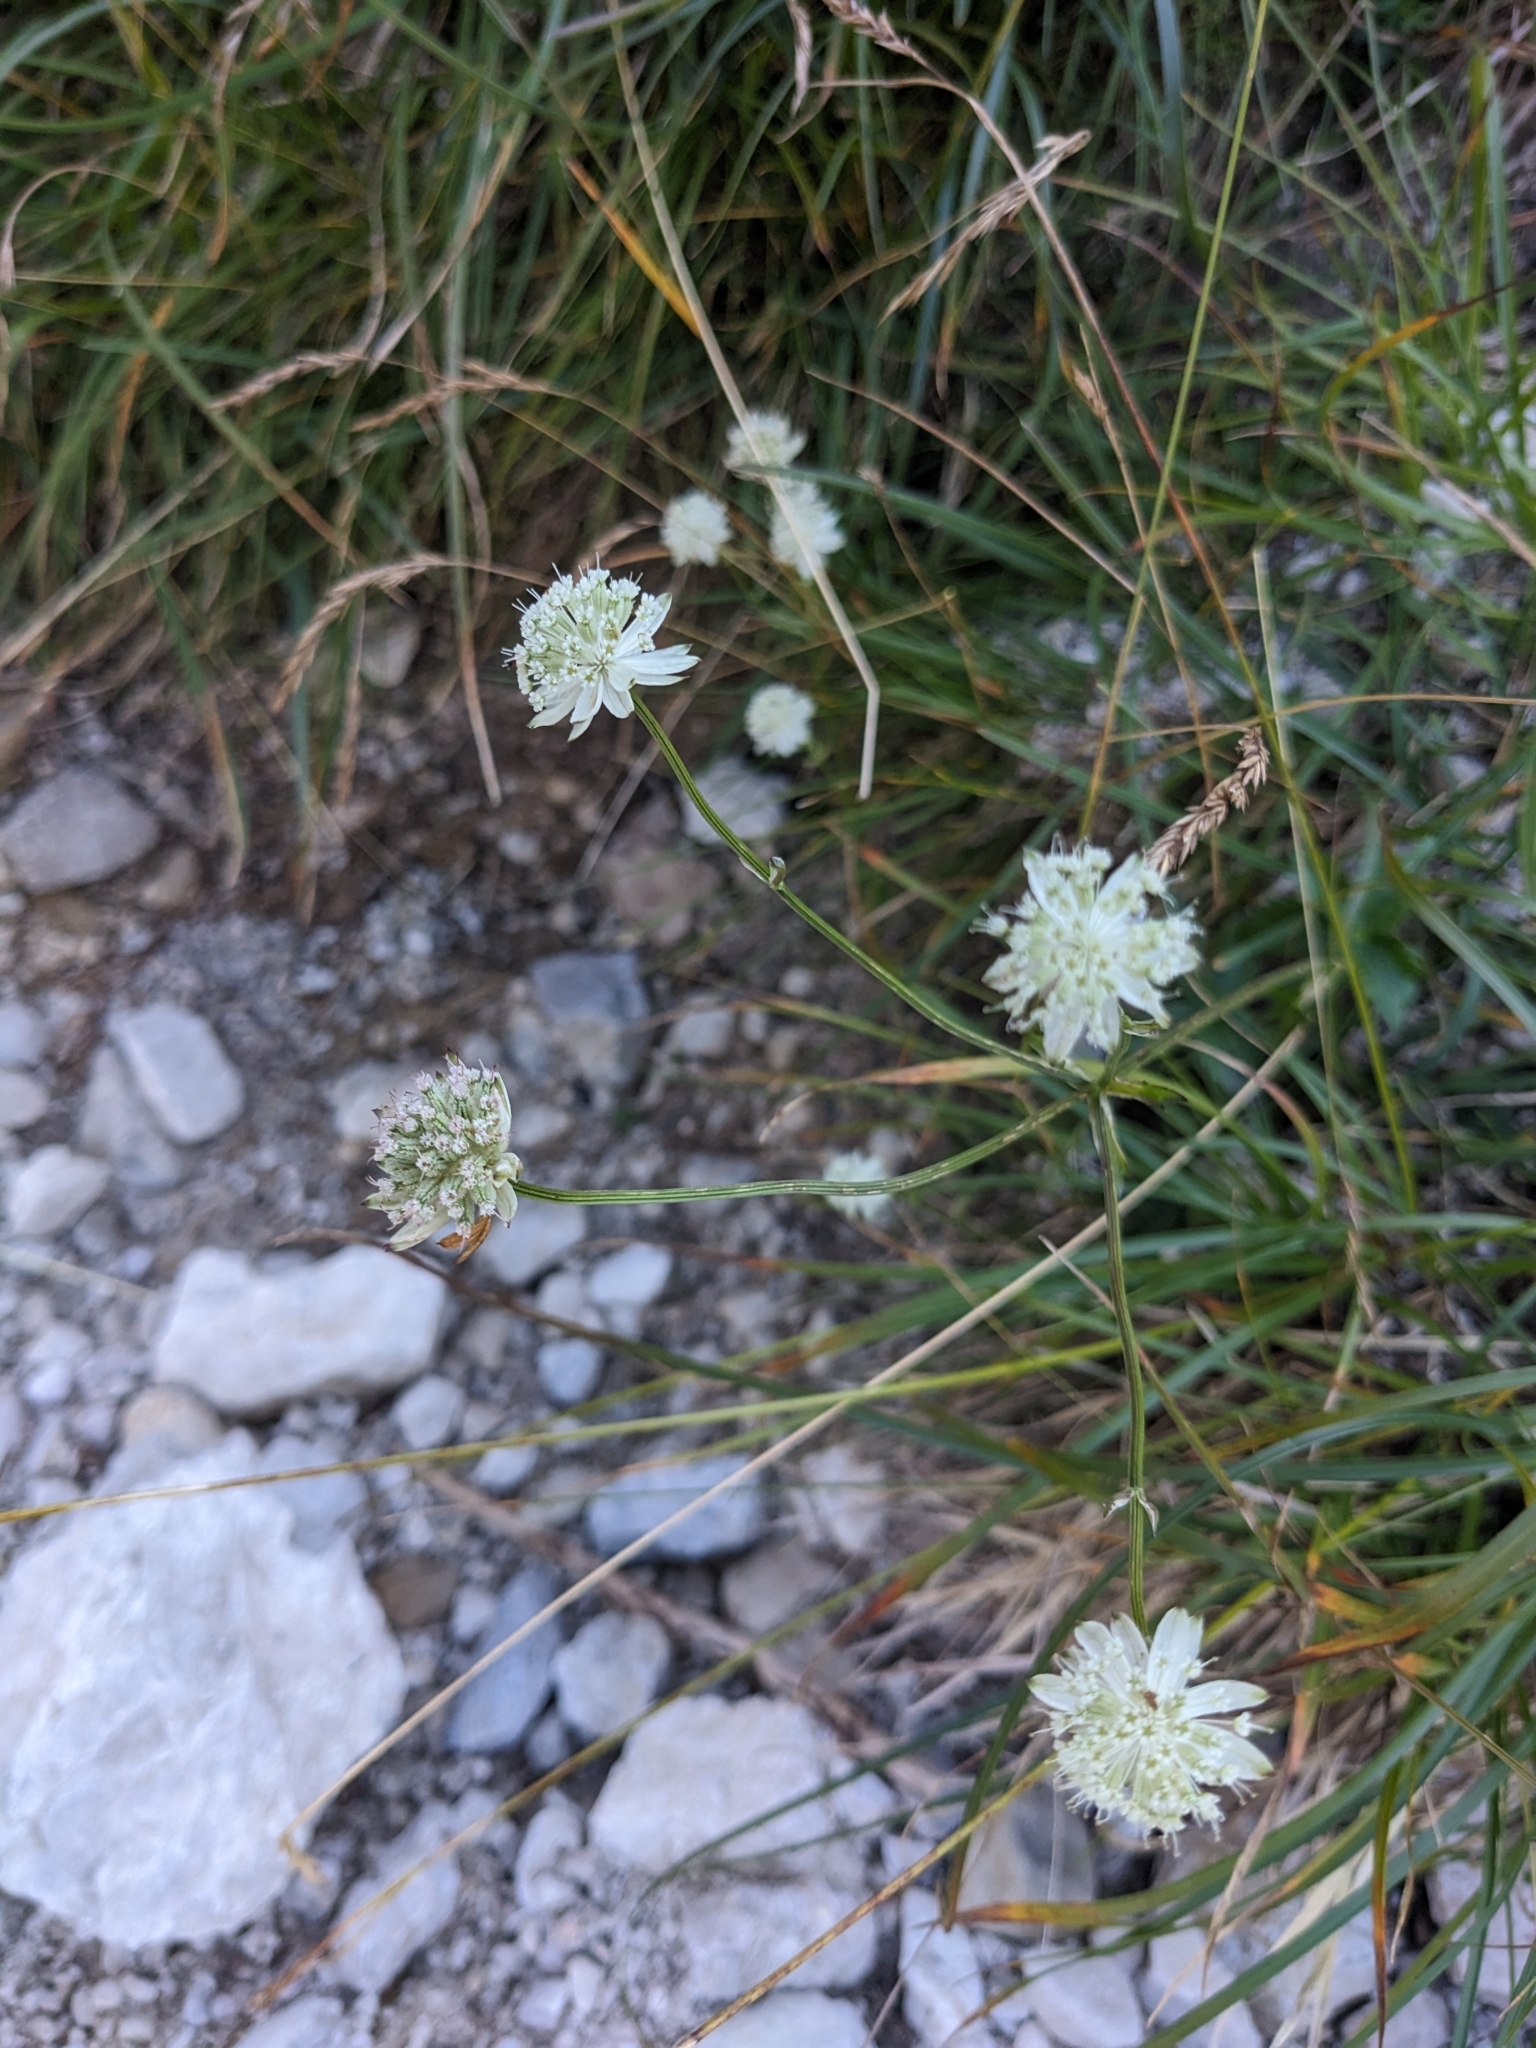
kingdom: Plantae
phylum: Tracheophyta
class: Magnoliopsida
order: Apiales
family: Apiaceae
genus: Astrantia
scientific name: Astrantia bavarica
